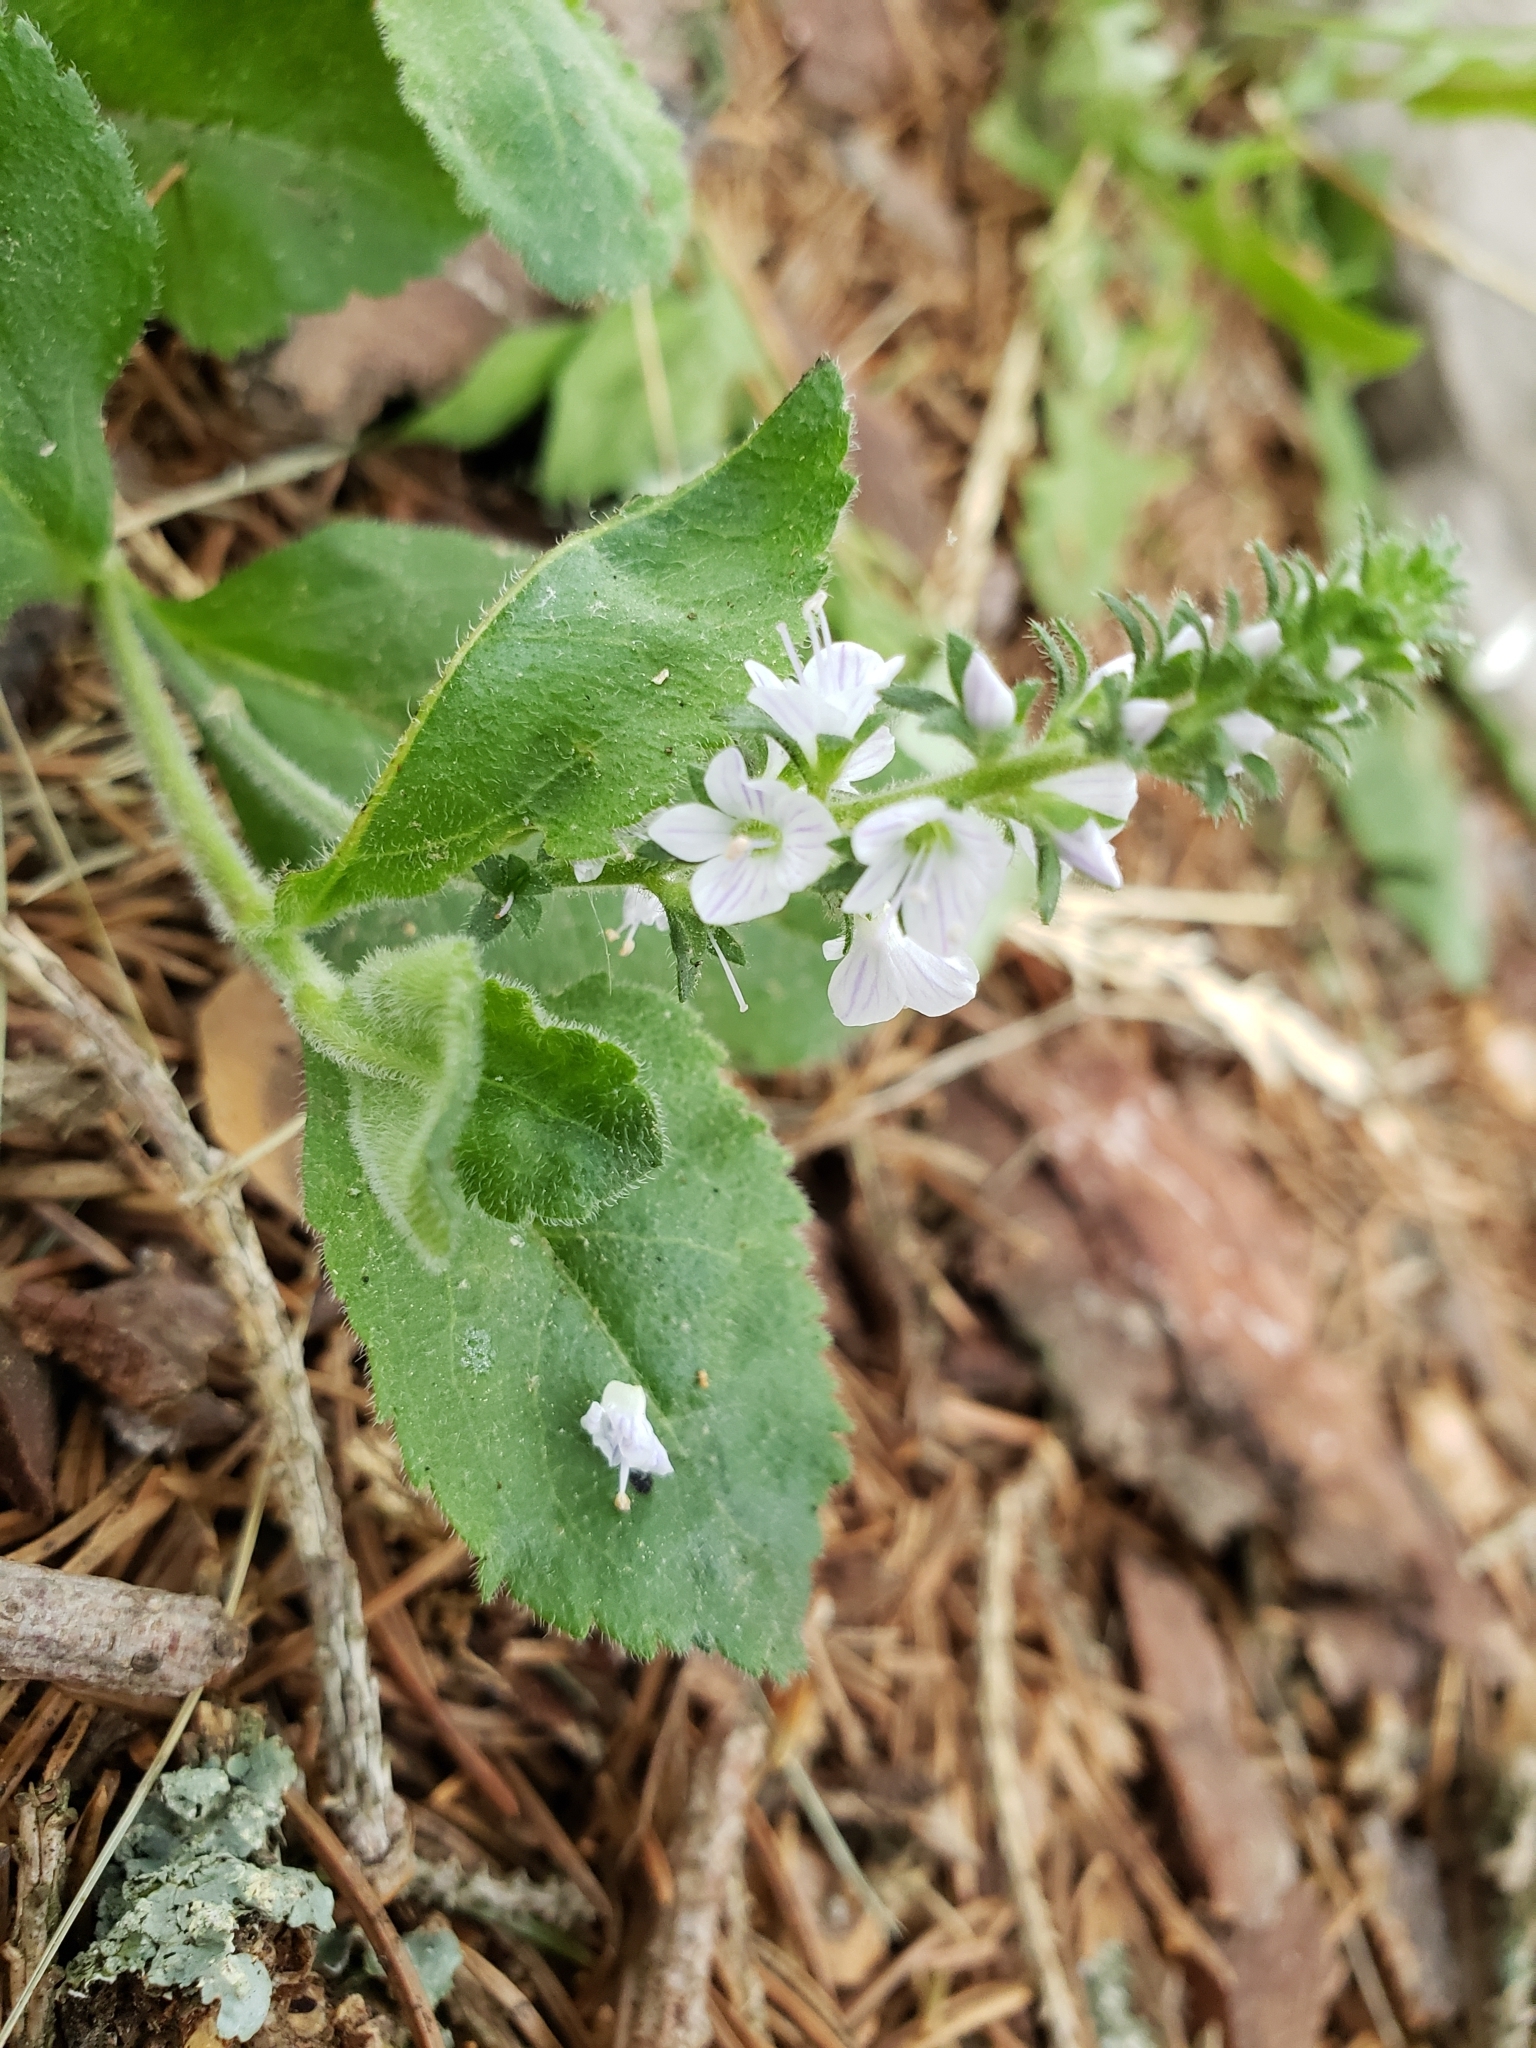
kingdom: Plantae
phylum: Tracheophyta
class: Magnoliopsida
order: Lamiales
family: Plantaginaceae
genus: Veronica
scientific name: Veronica officinalis
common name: Common speedwell
